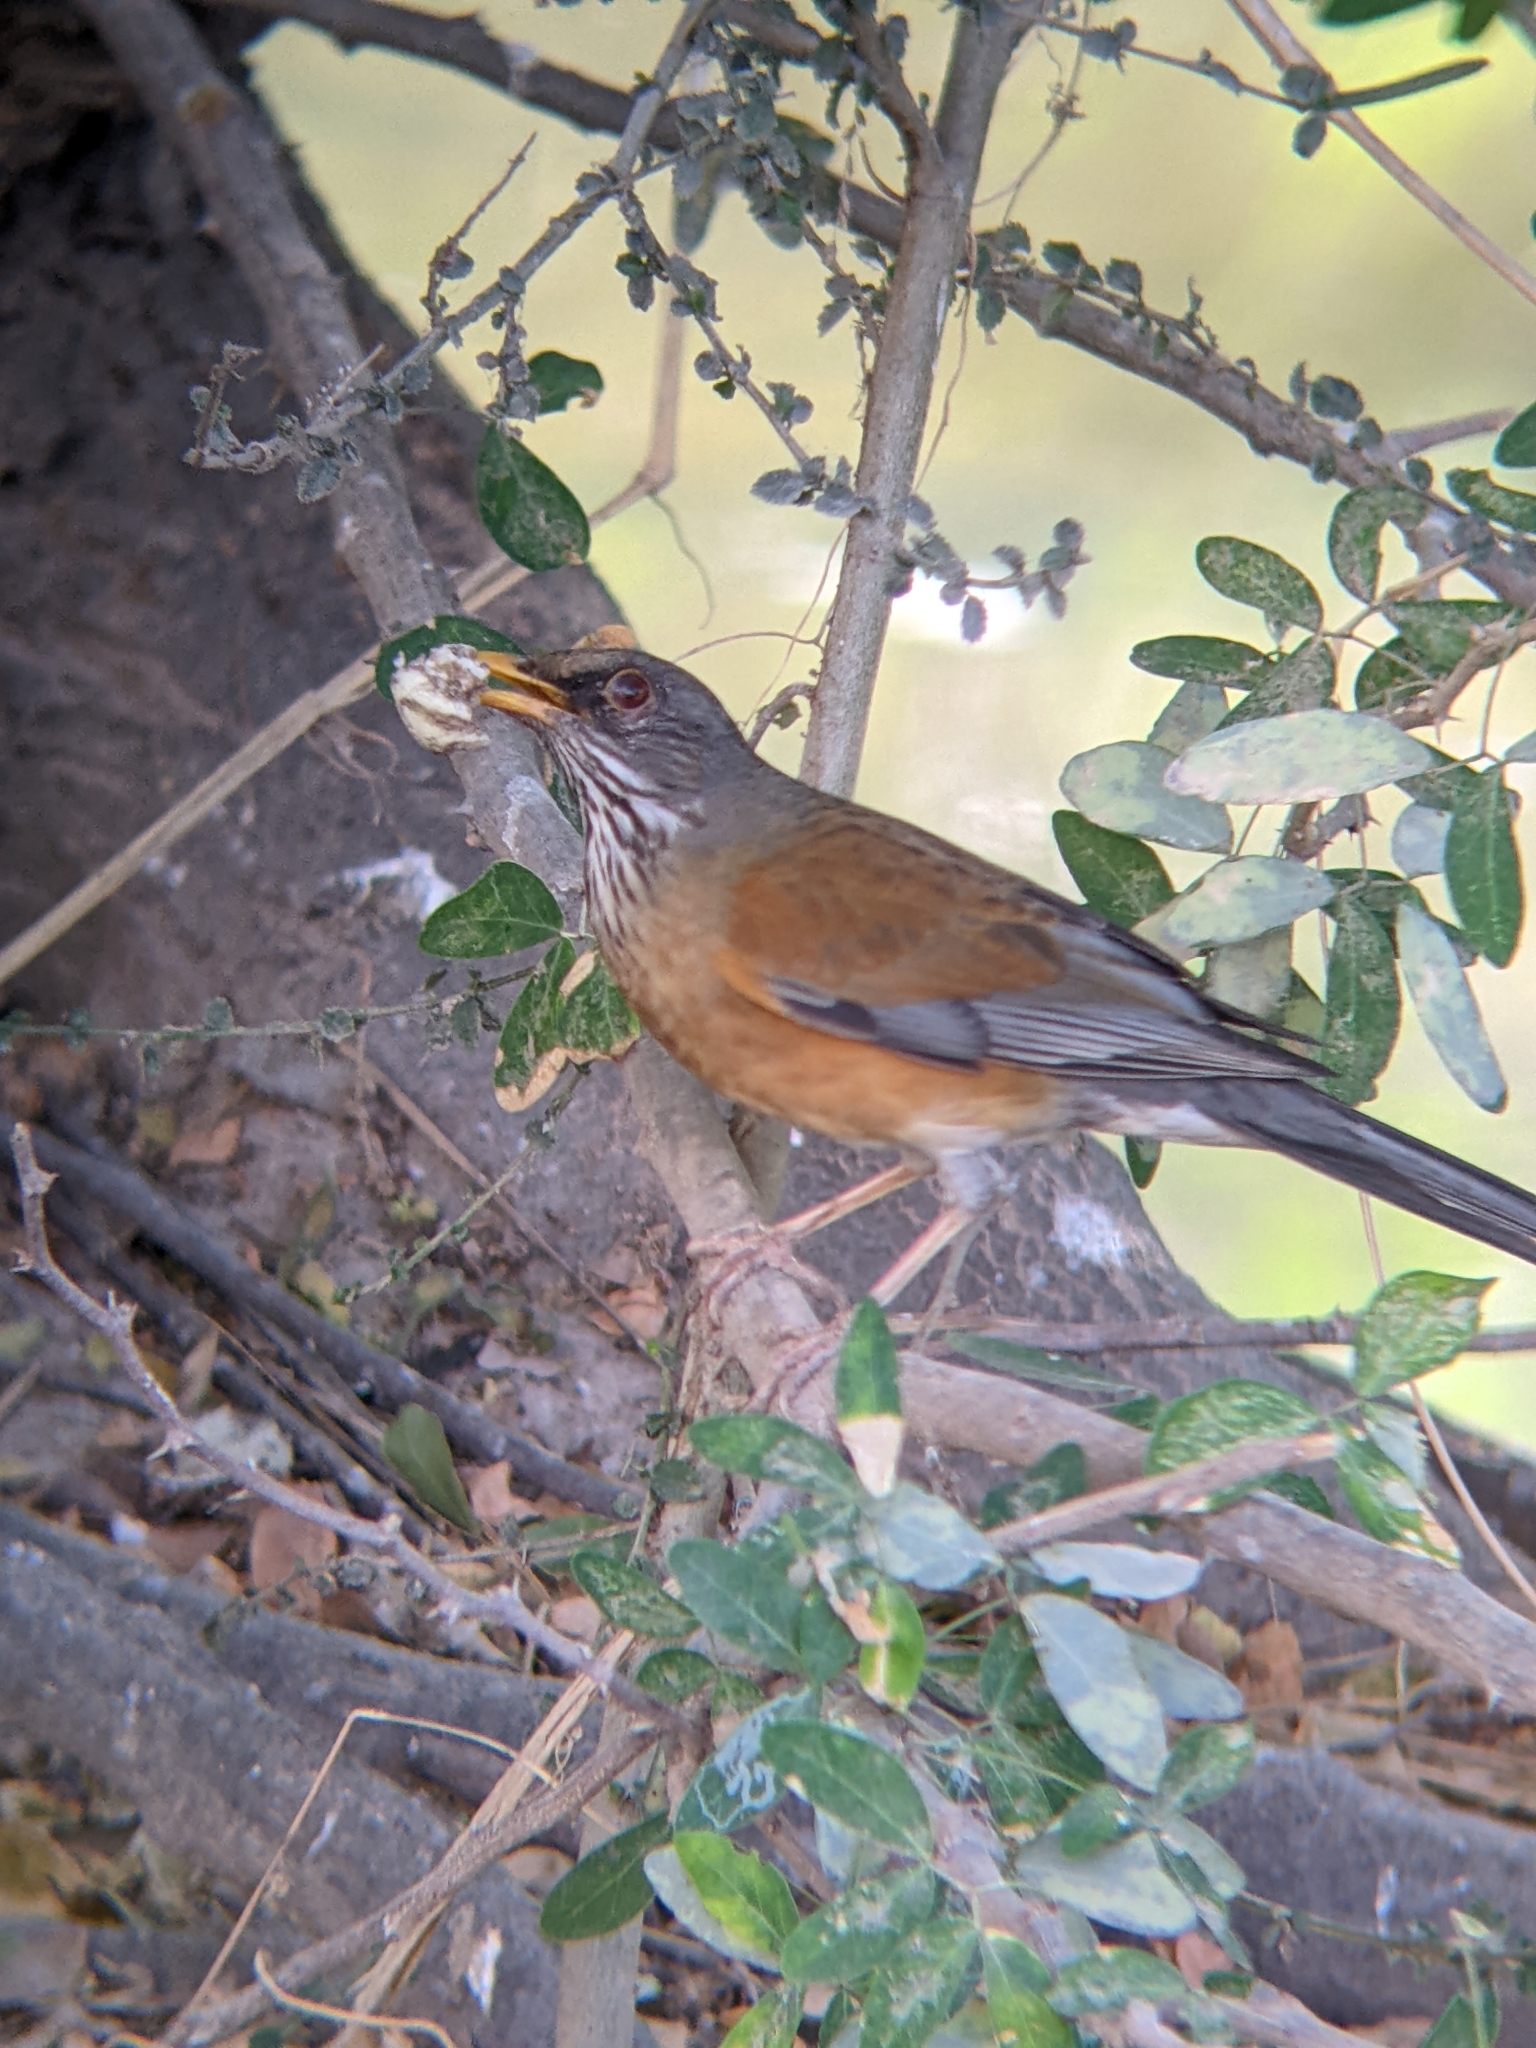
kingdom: Animalia
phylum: Chordata
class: Aves
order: Passeriformes
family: Turdidae
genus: Turdus
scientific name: Turdus rufopalliatus
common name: Rufous-backed robin
